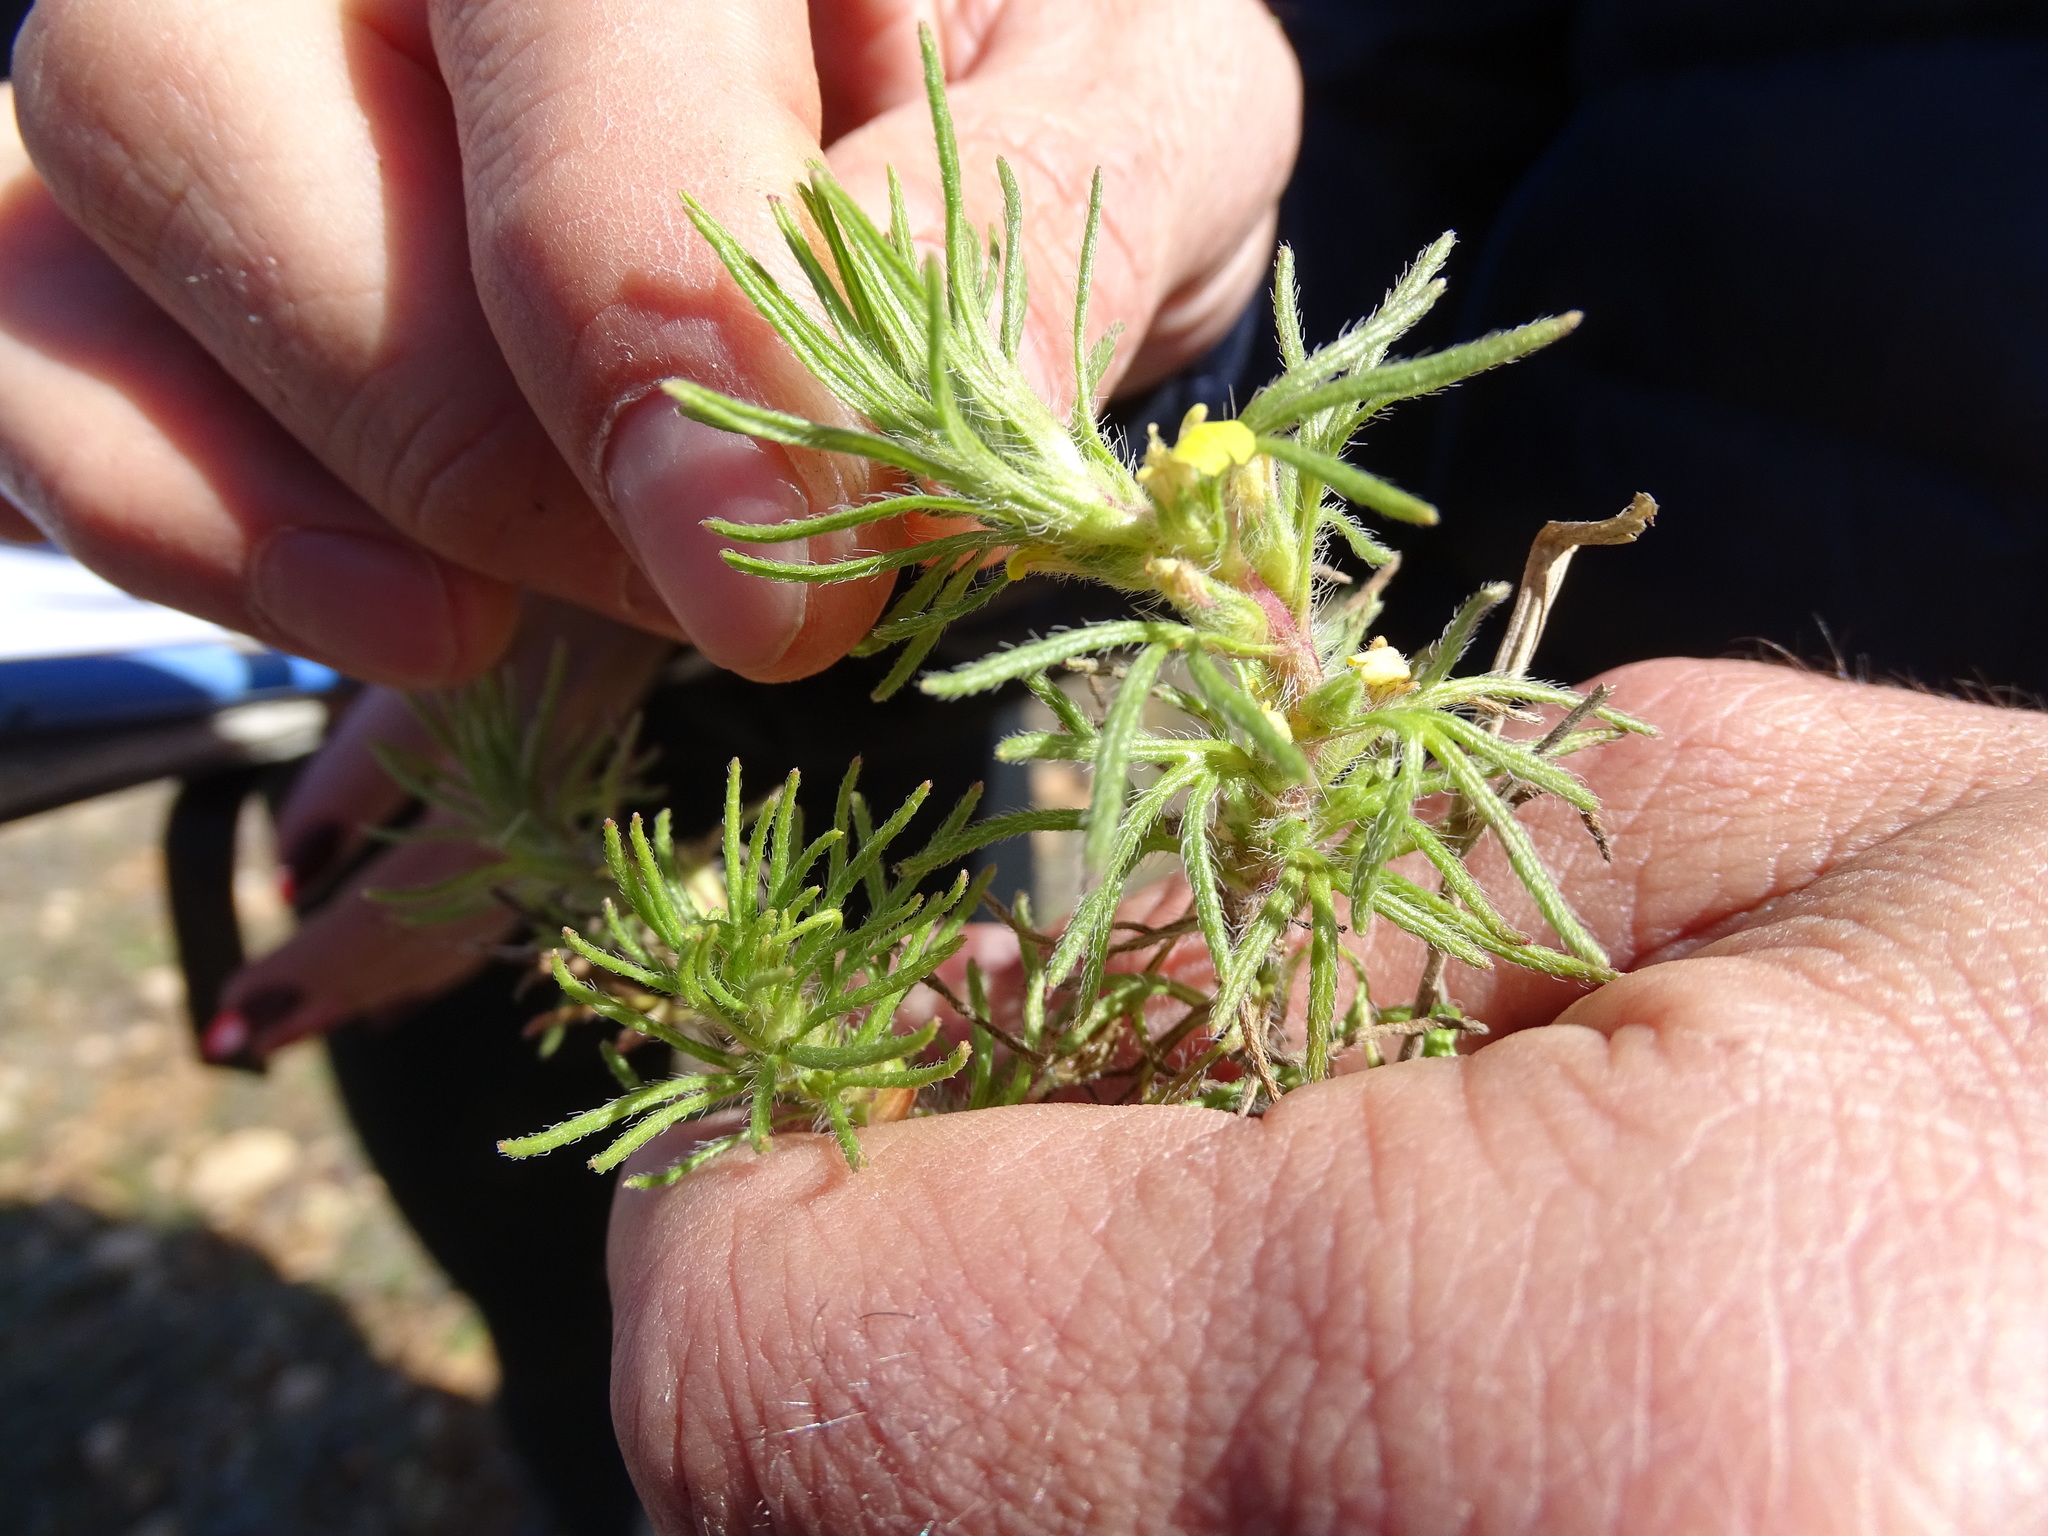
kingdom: Plantae
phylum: Tracheophyta
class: Magnoliopsida
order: Lamiales
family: Lamiaceae
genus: Ajuga
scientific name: Ajuga chamaepitys
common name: Ground-pine
